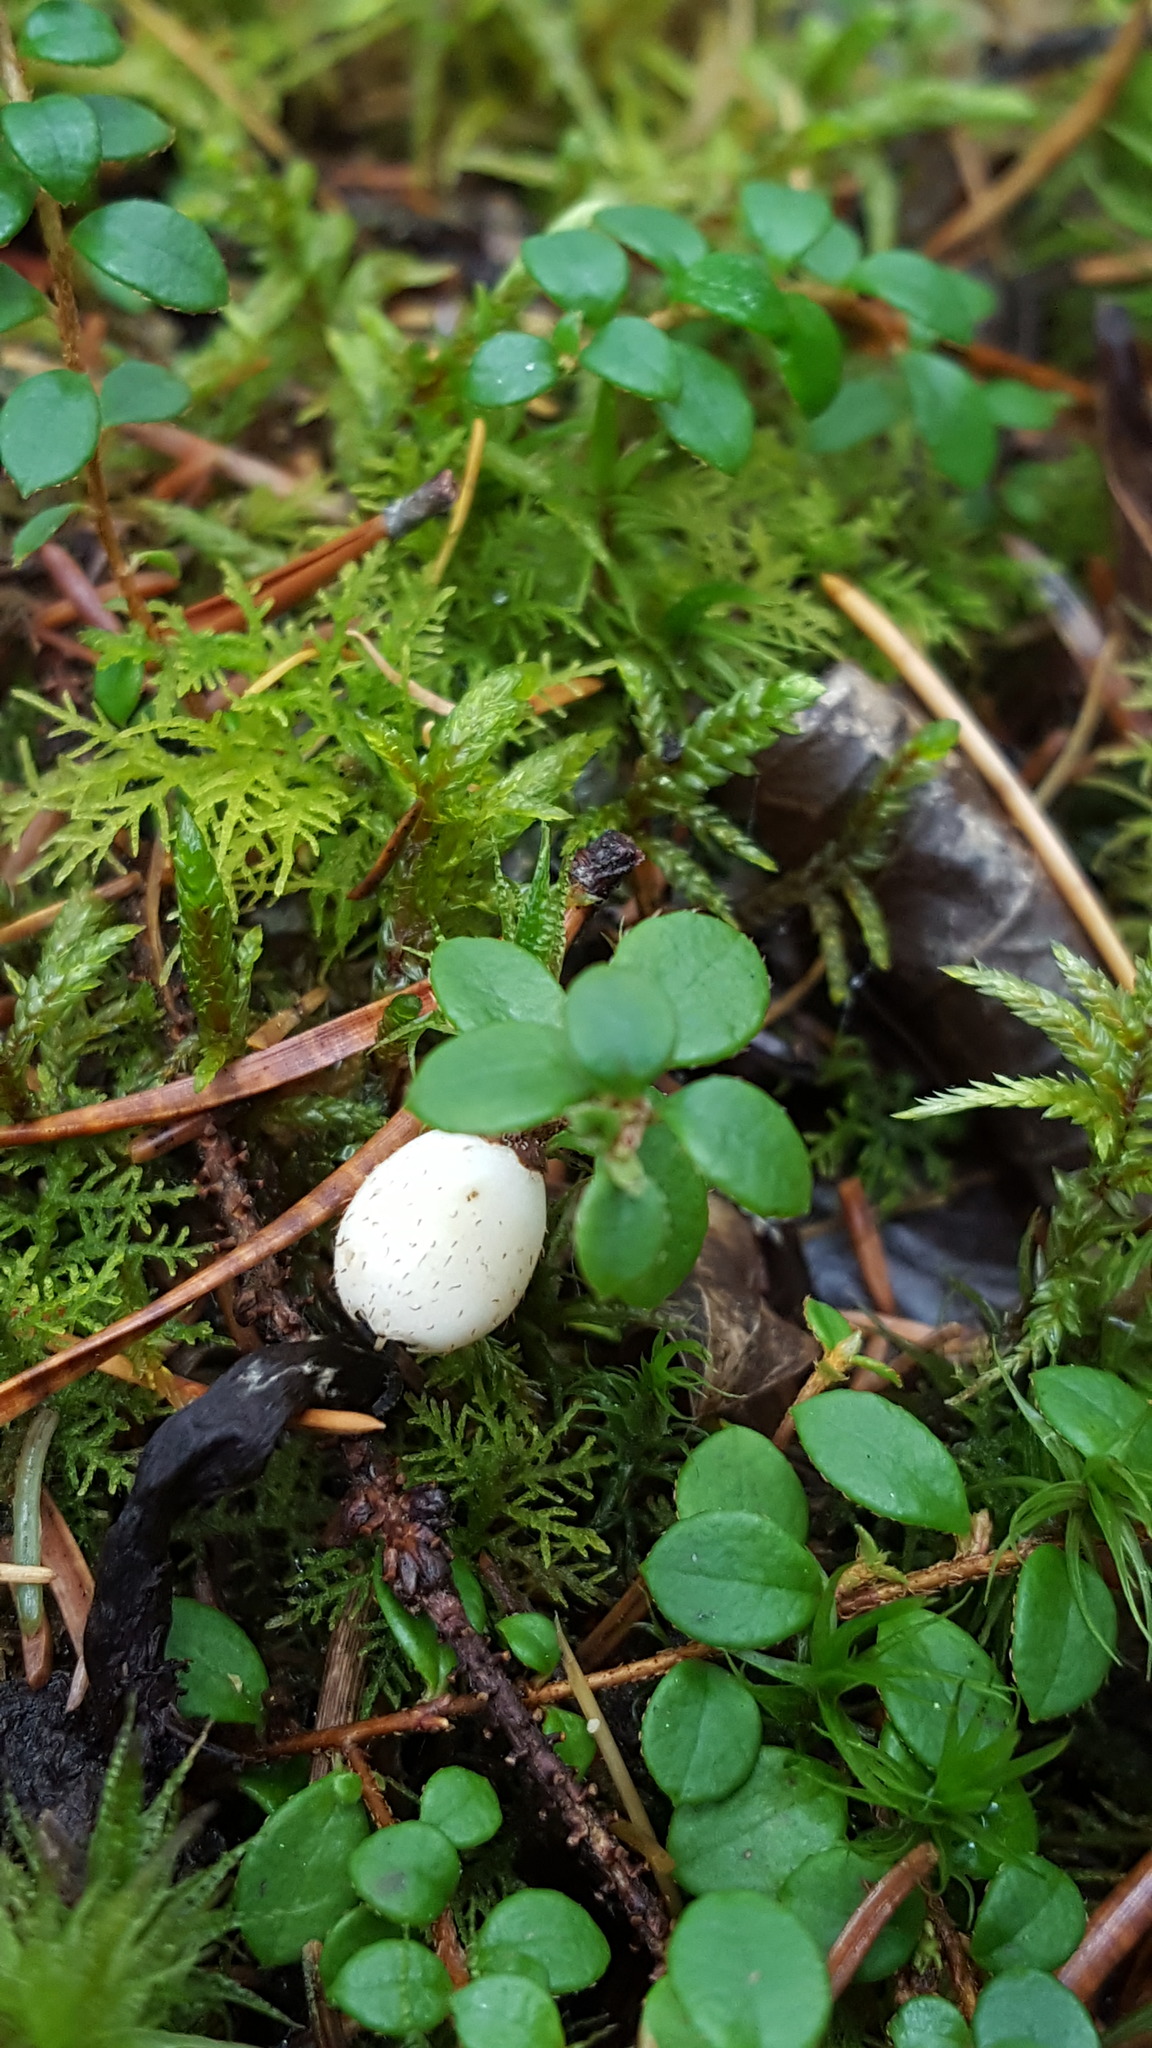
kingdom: Plantae
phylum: Tracheophyta
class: Magnoliopsida
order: Ericales
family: Ericaceae
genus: Gaultheria
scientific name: Gaultheria hispidula
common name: Cancer wintergreen
